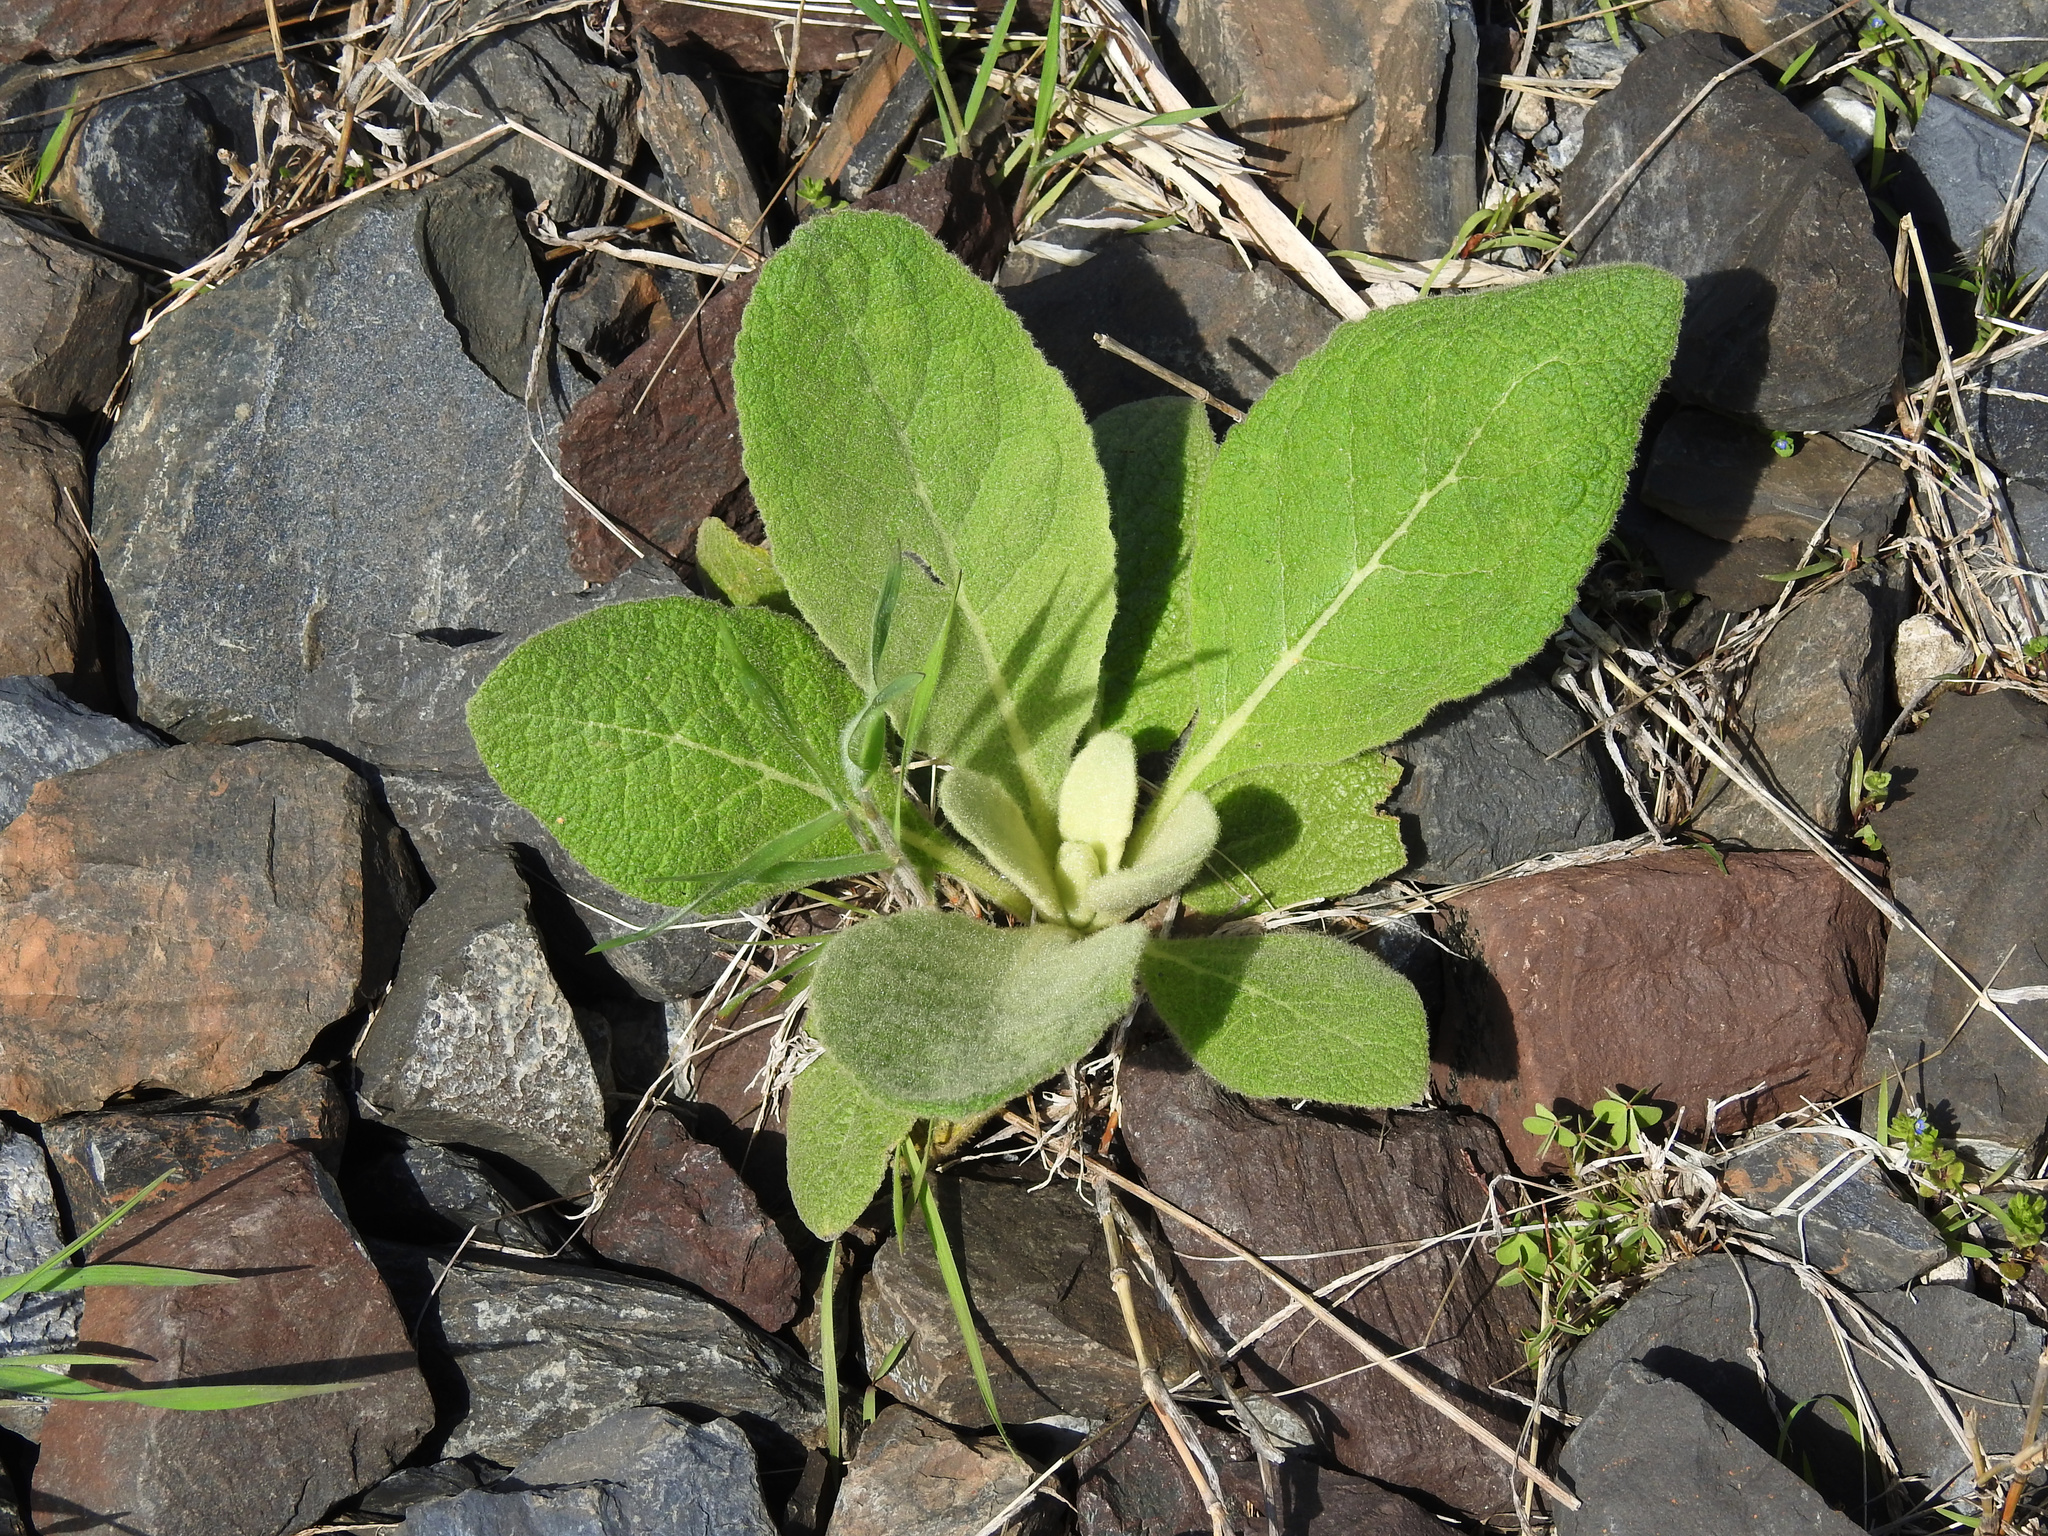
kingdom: Plantae
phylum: Tracheophyta
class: Magnoliopsida
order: Lamiales
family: Scrophulariaceae
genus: Verbascum
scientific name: Verbascum thapsus
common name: Common mullein
